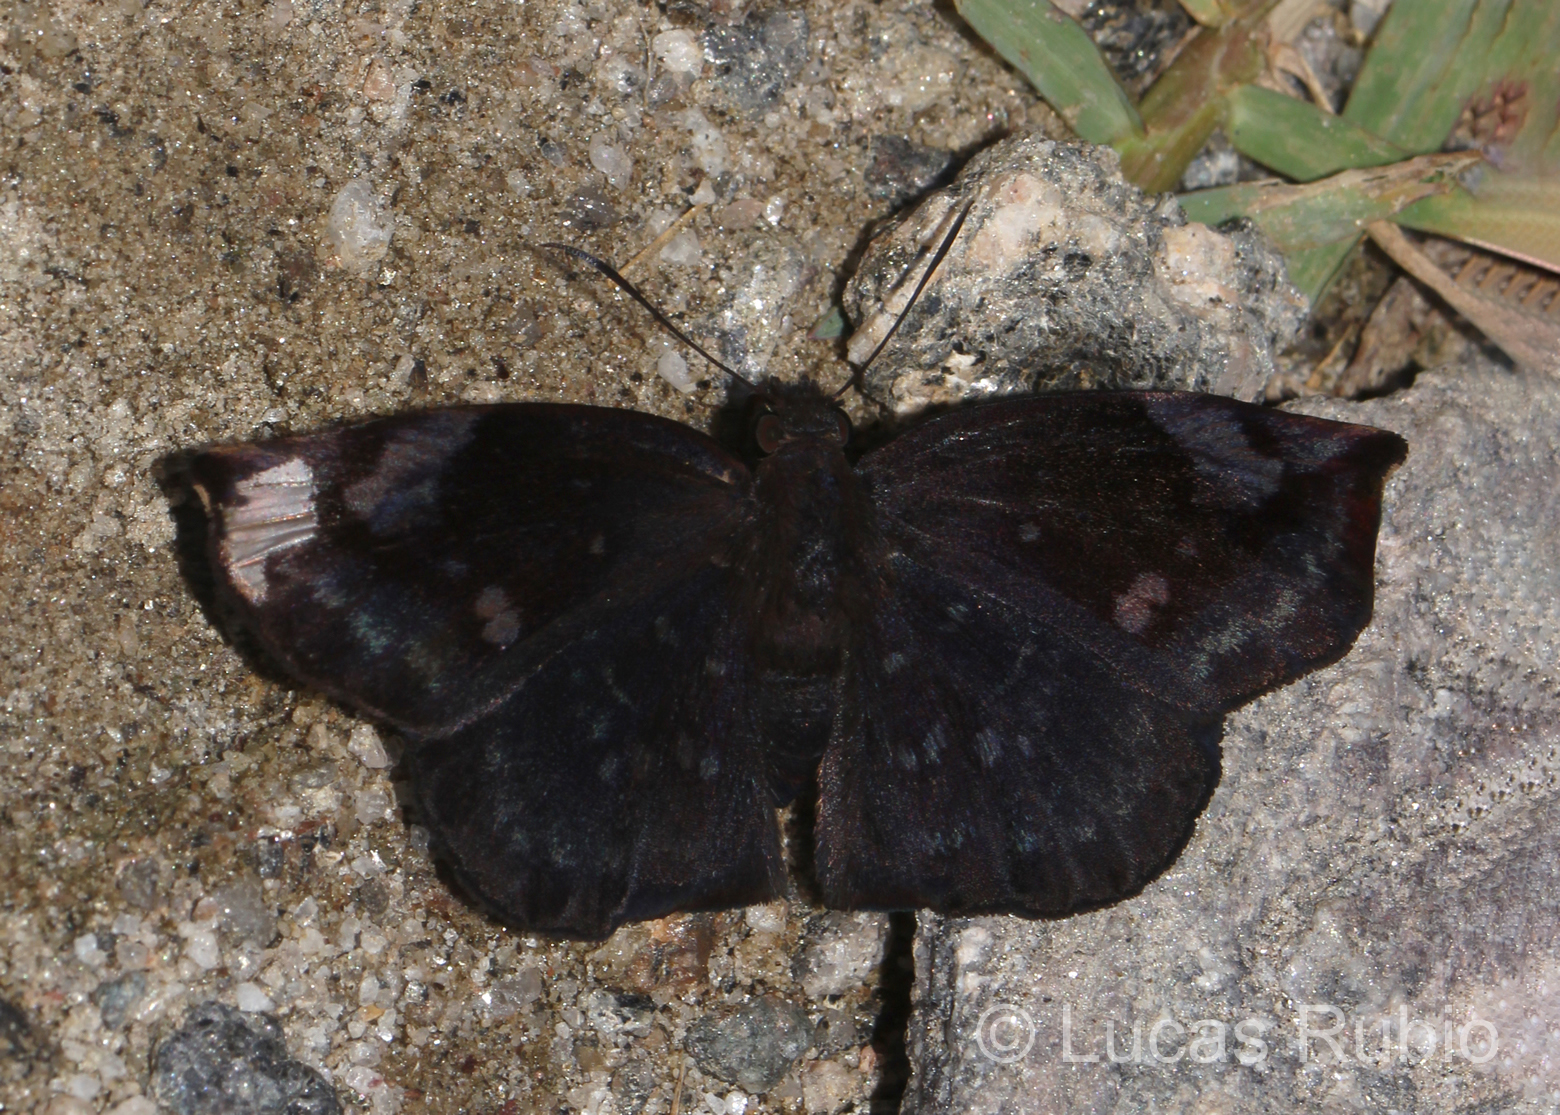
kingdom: Animalia
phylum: Arthropoda
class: Insecta
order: Lepidoptera
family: Hesperiidae
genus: Achlyodes
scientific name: Achlyodes thraso
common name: Sickle-winged skipper
